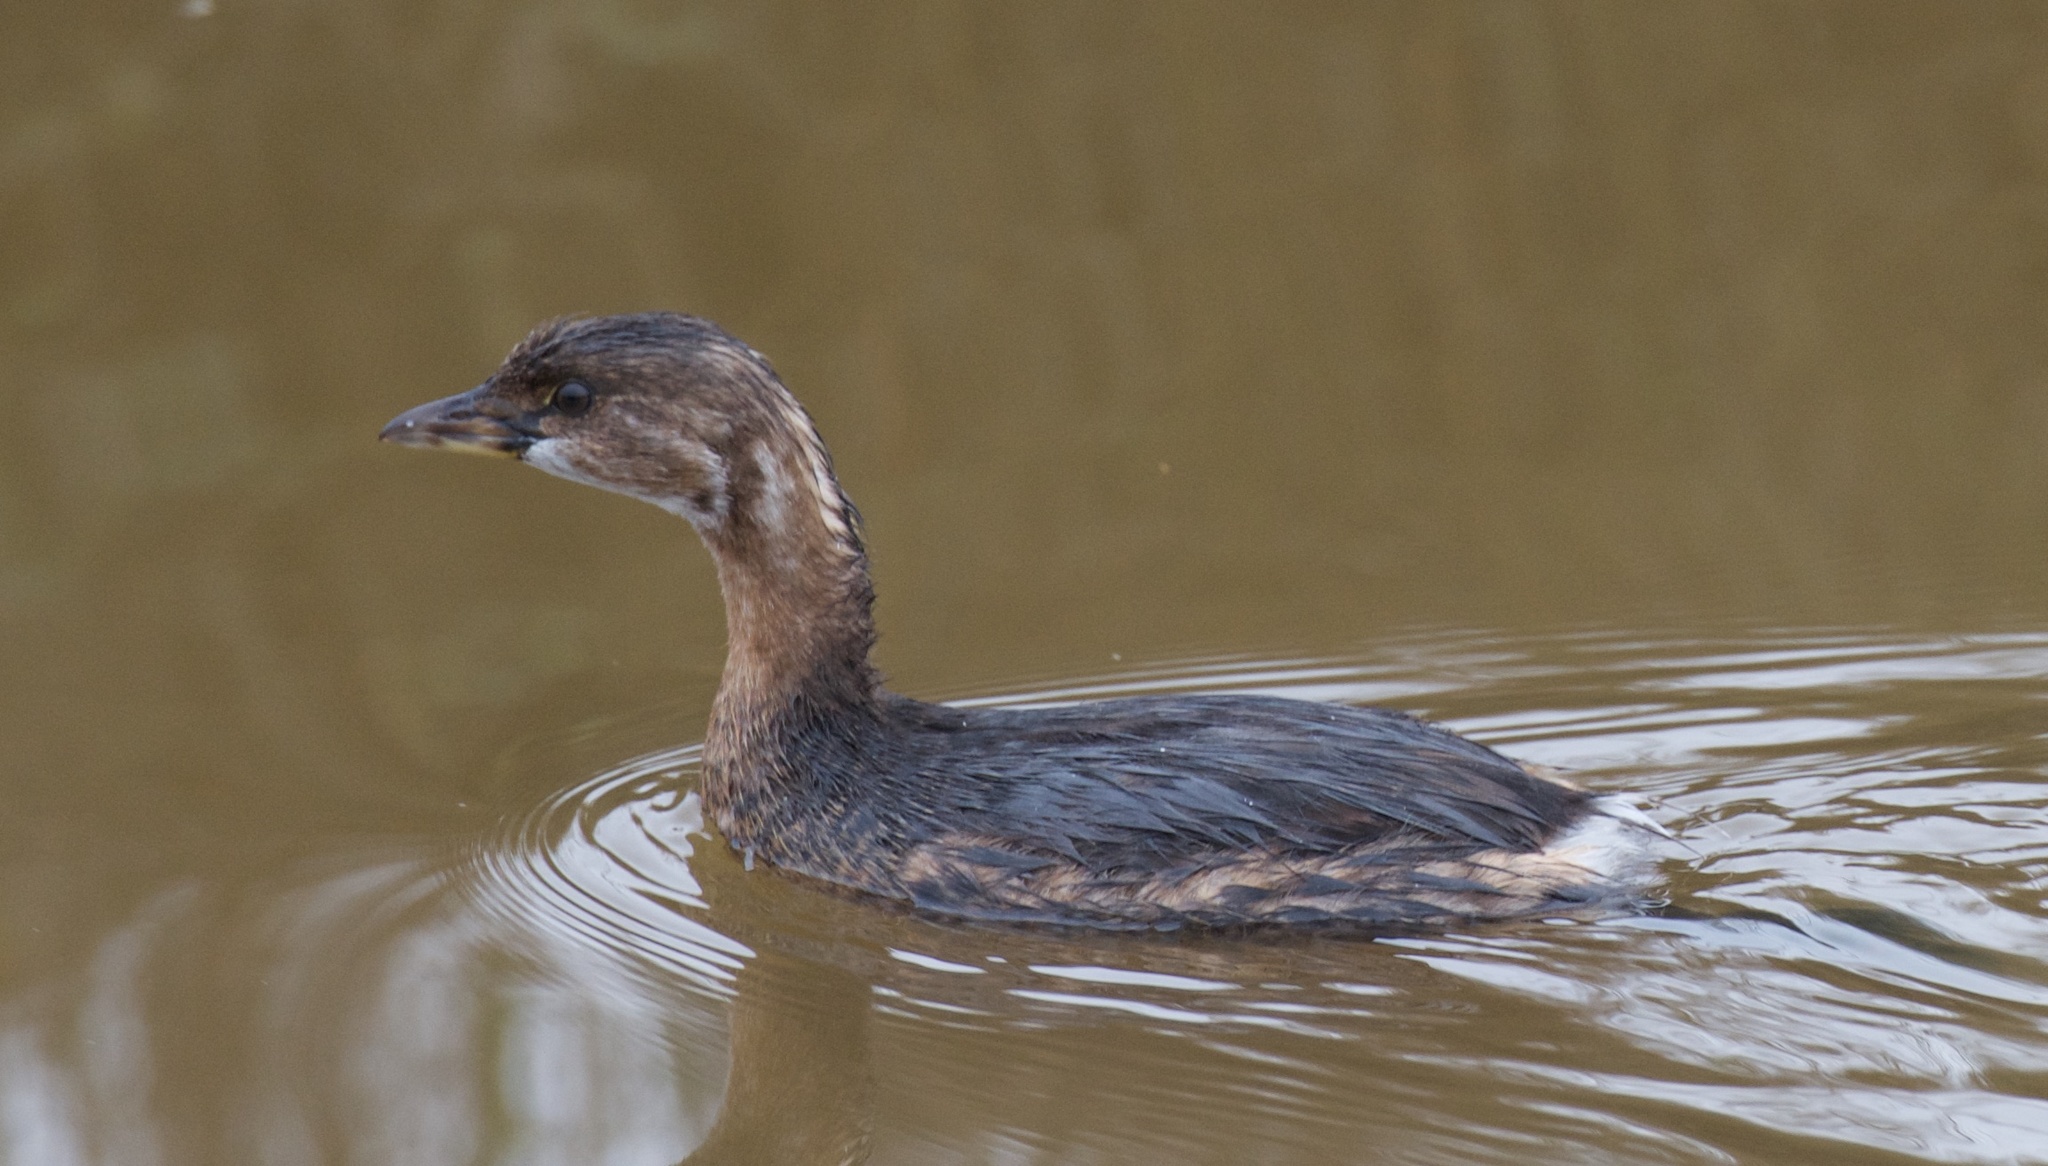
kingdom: Animalia
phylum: Chordata
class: Aves
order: Podicipediformes
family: Podicipedidae
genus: Podilymbus
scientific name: Podilymbus podiceps
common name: Pied-billed grebe
